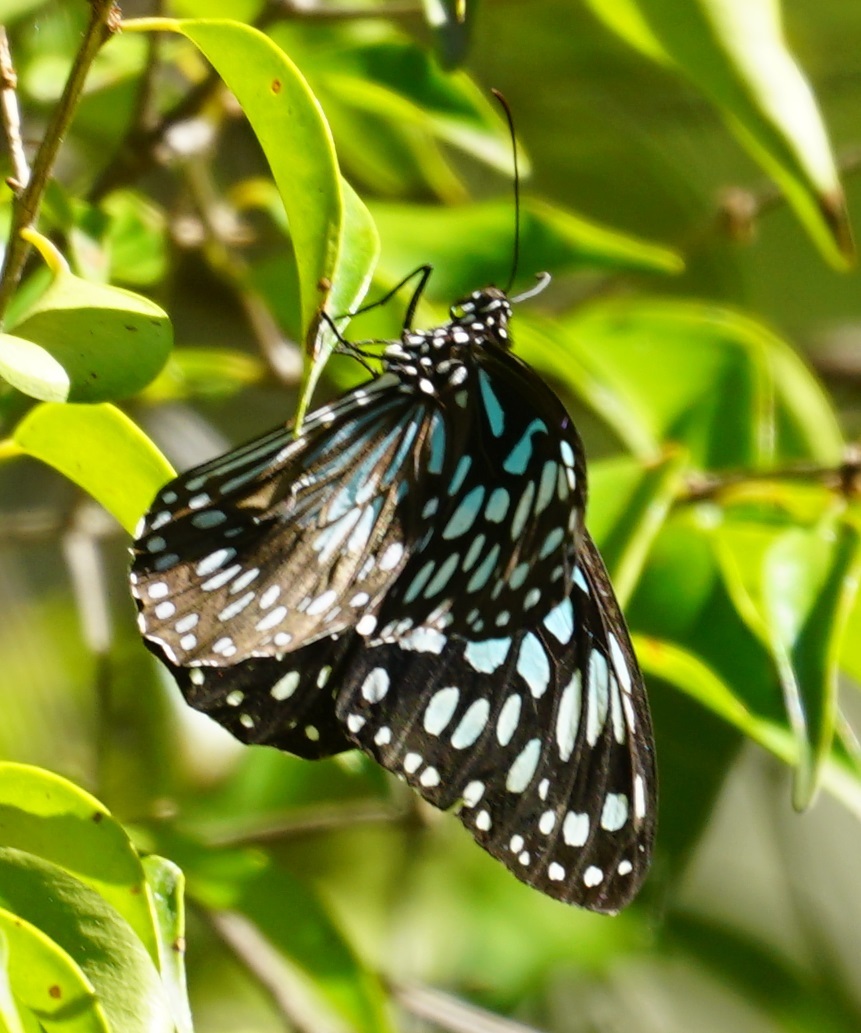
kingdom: Animalia
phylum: Arthropoda
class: Insecta
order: Lepidoptera
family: Nymphalidae
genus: Tirumala
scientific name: Tirumala hamata
